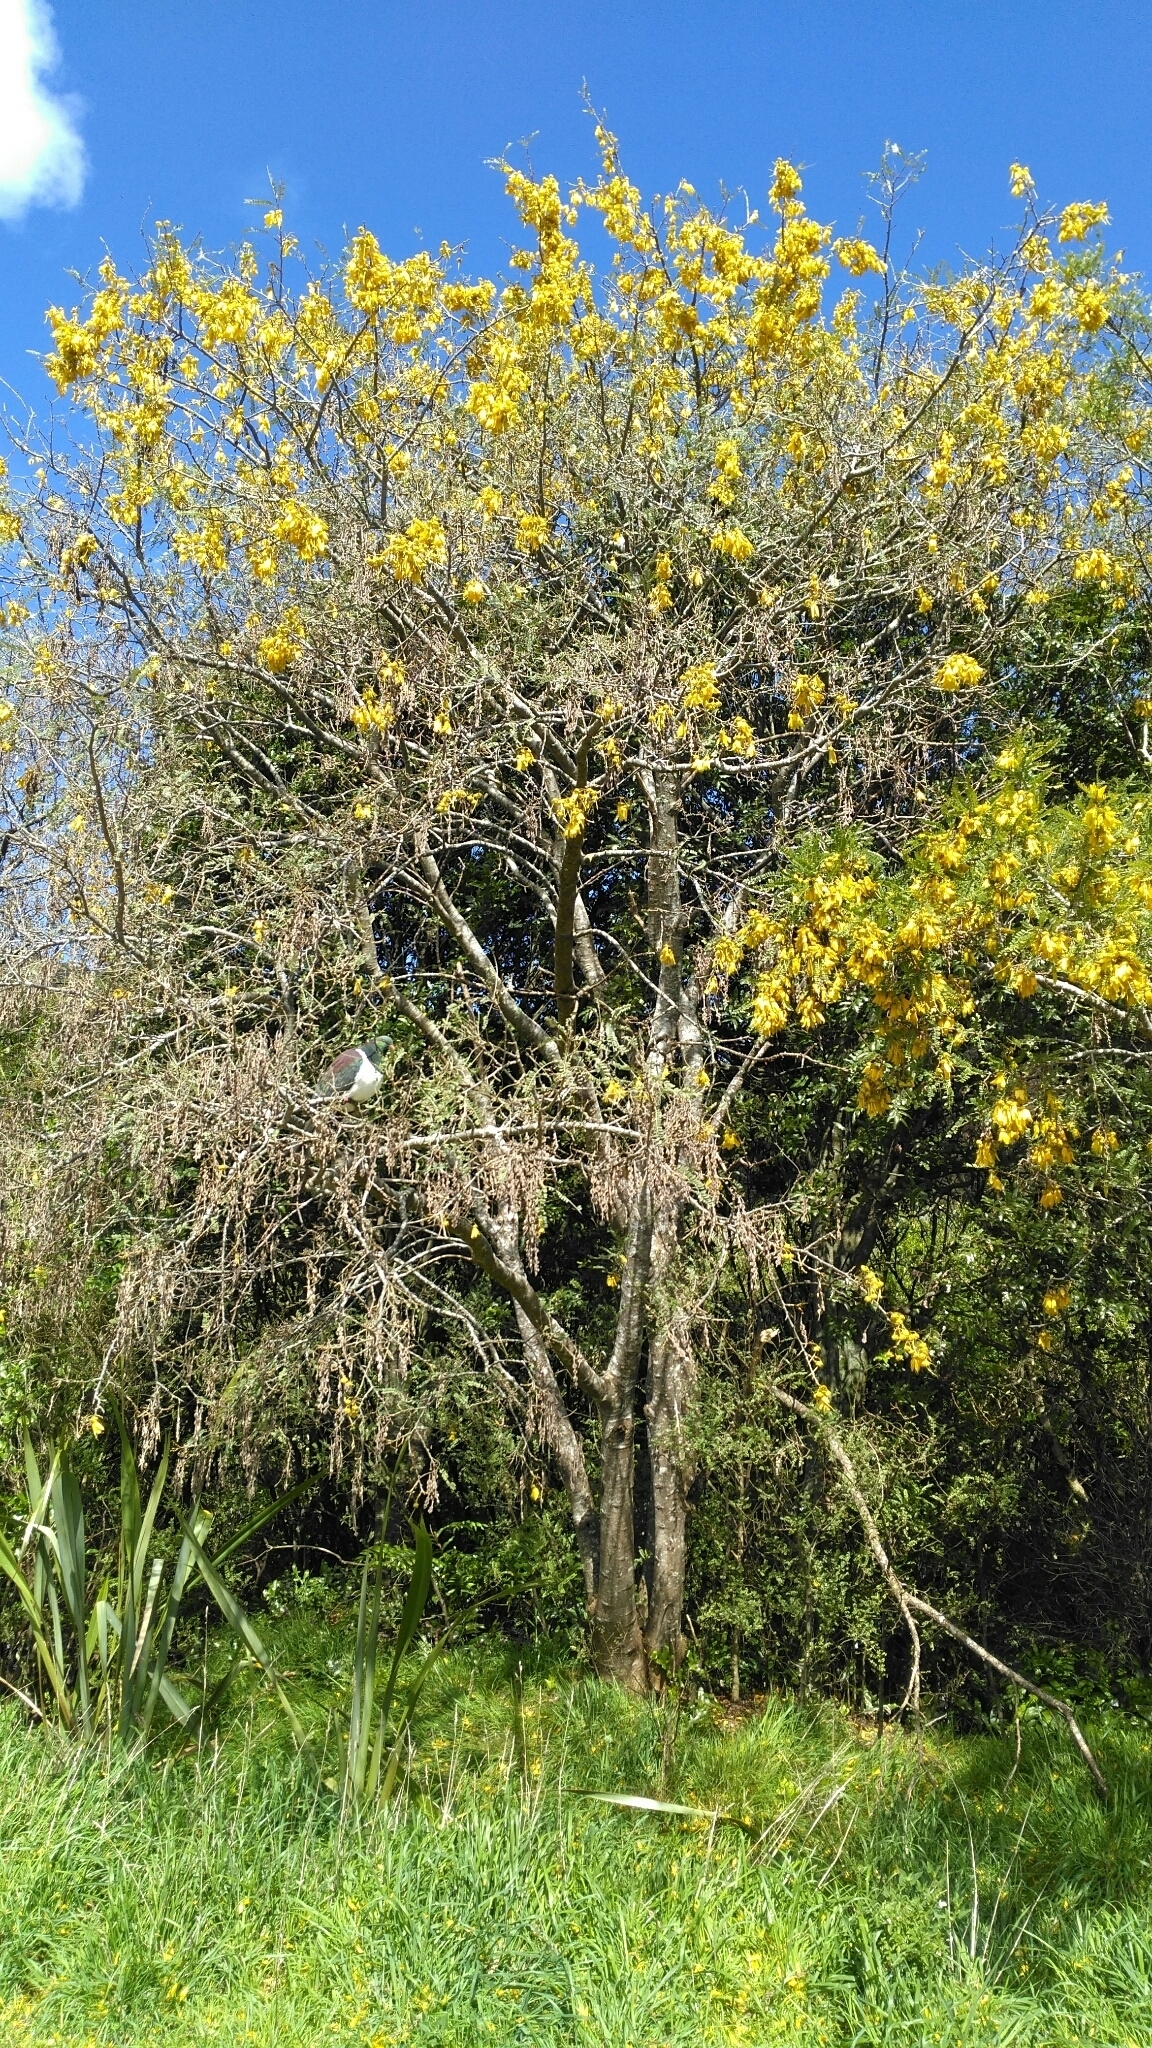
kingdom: Animalia
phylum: Chordata
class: Aves
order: Columbiformes
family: Columbidae
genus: Hemiphaga
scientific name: Hemiphaga novaeseelandiae
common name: New zealand pigeon
